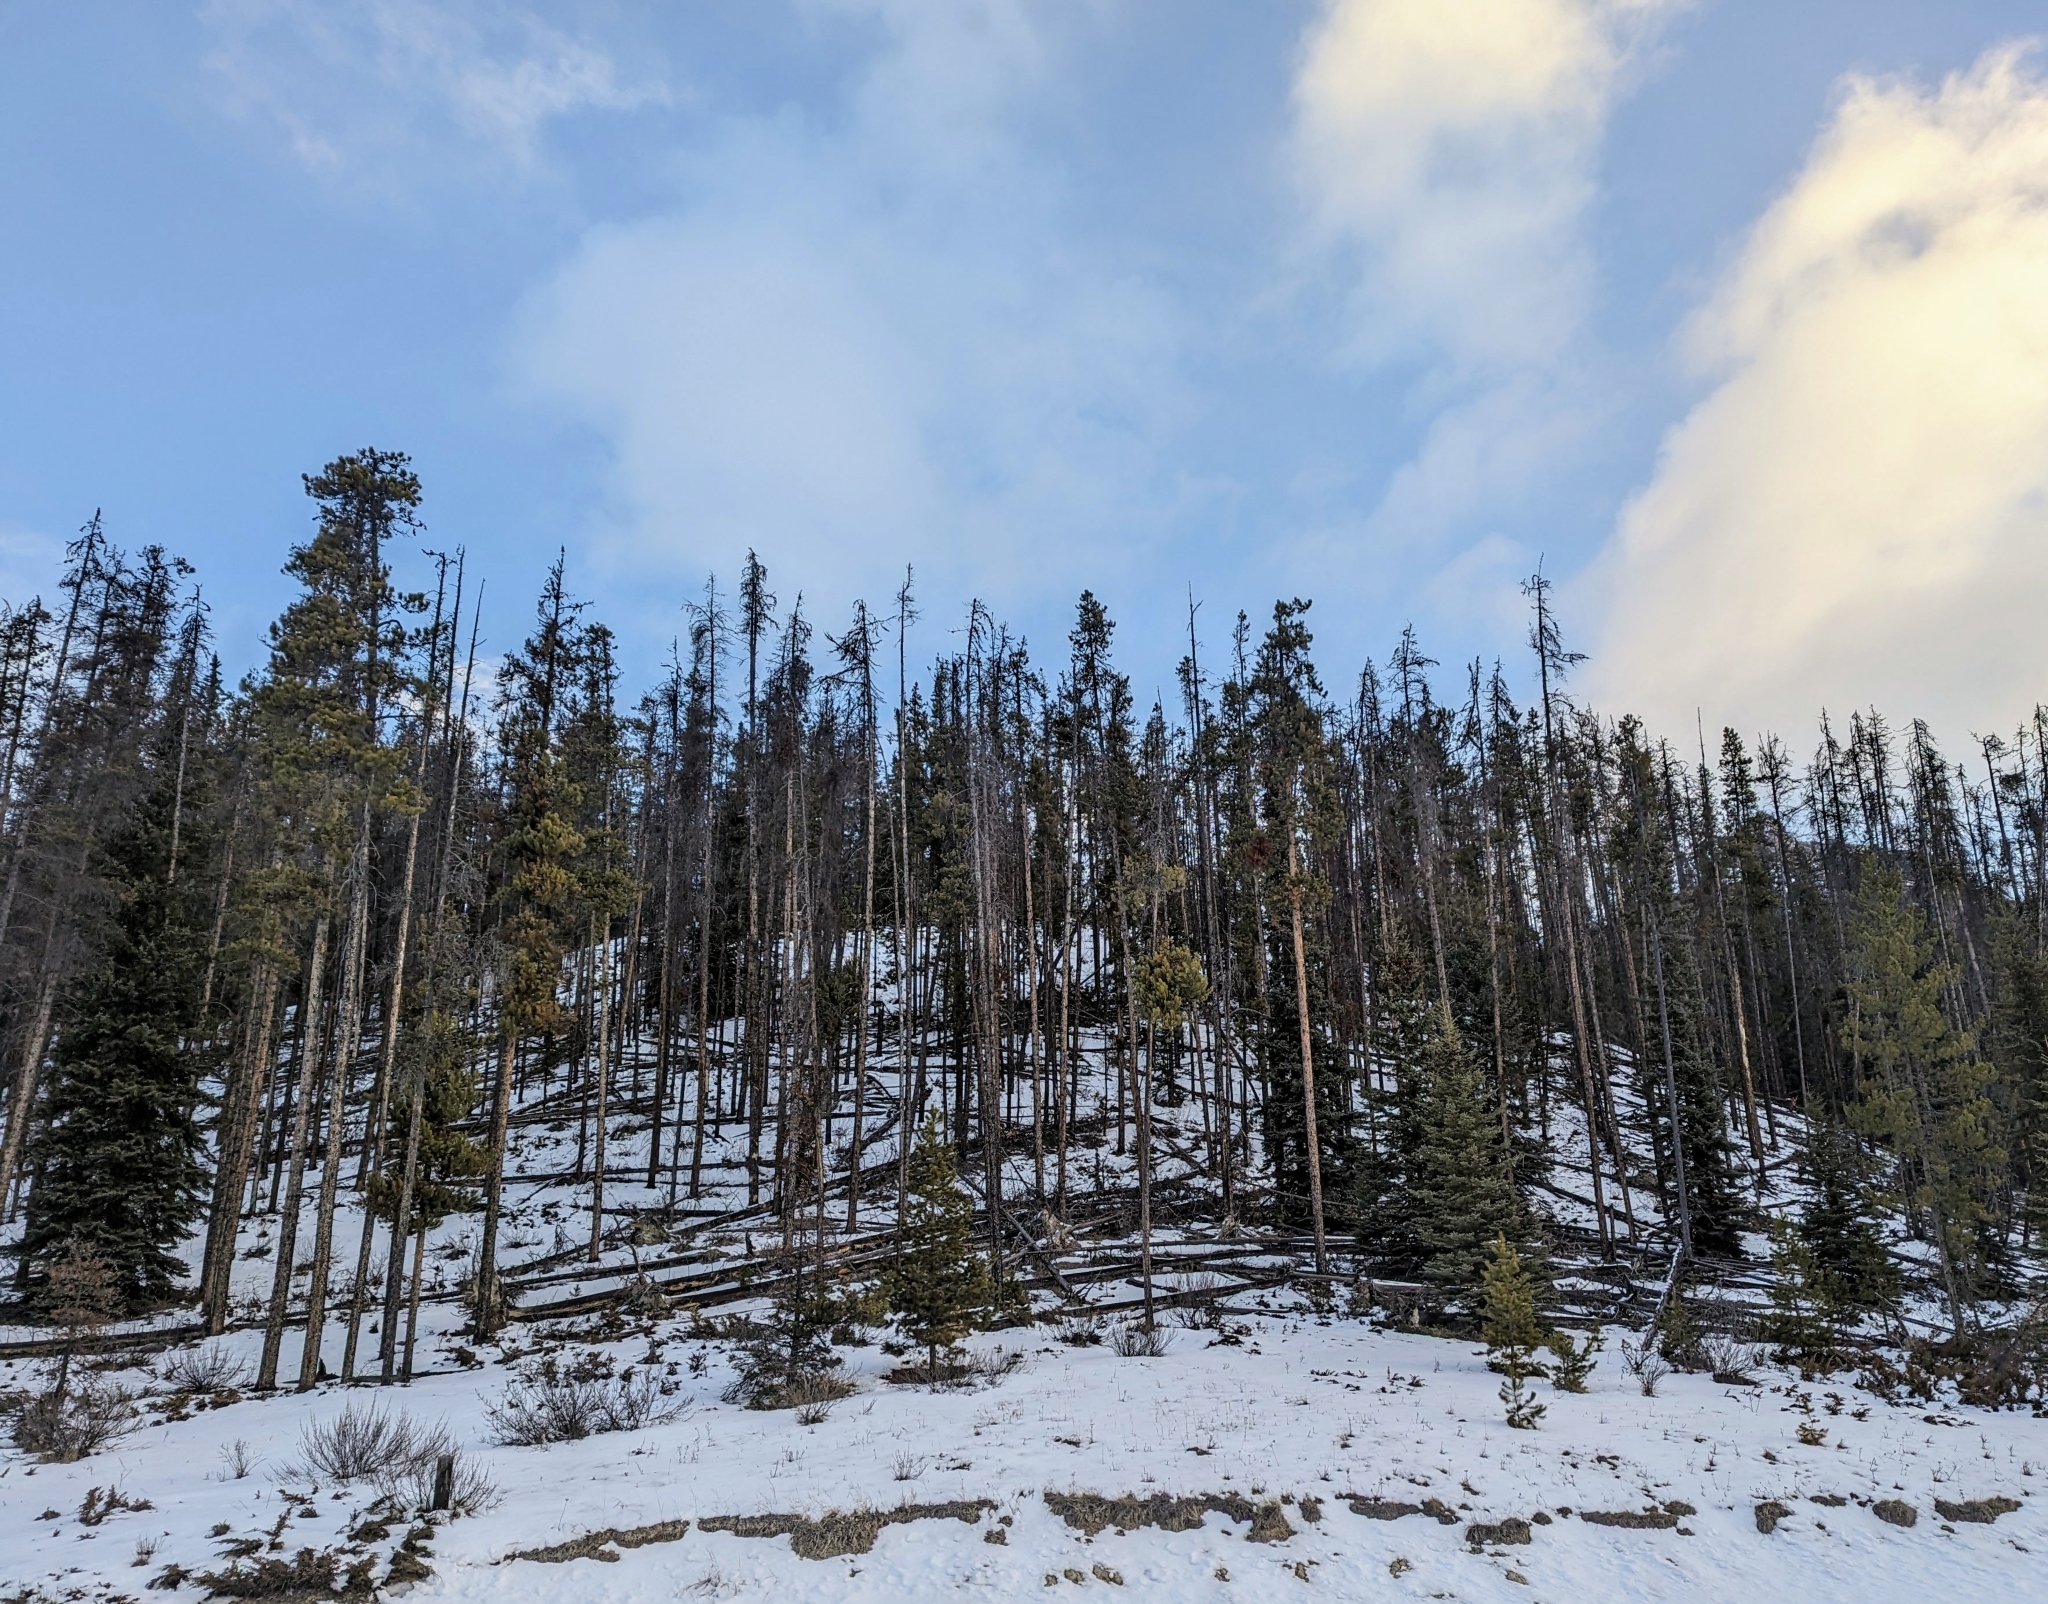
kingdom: Plantae
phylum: Tracheophyta
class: Pinopsida
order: Pinales
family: Pinaceae
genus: Pinus
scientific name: Pinus contorta
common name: Lodgepole pine
